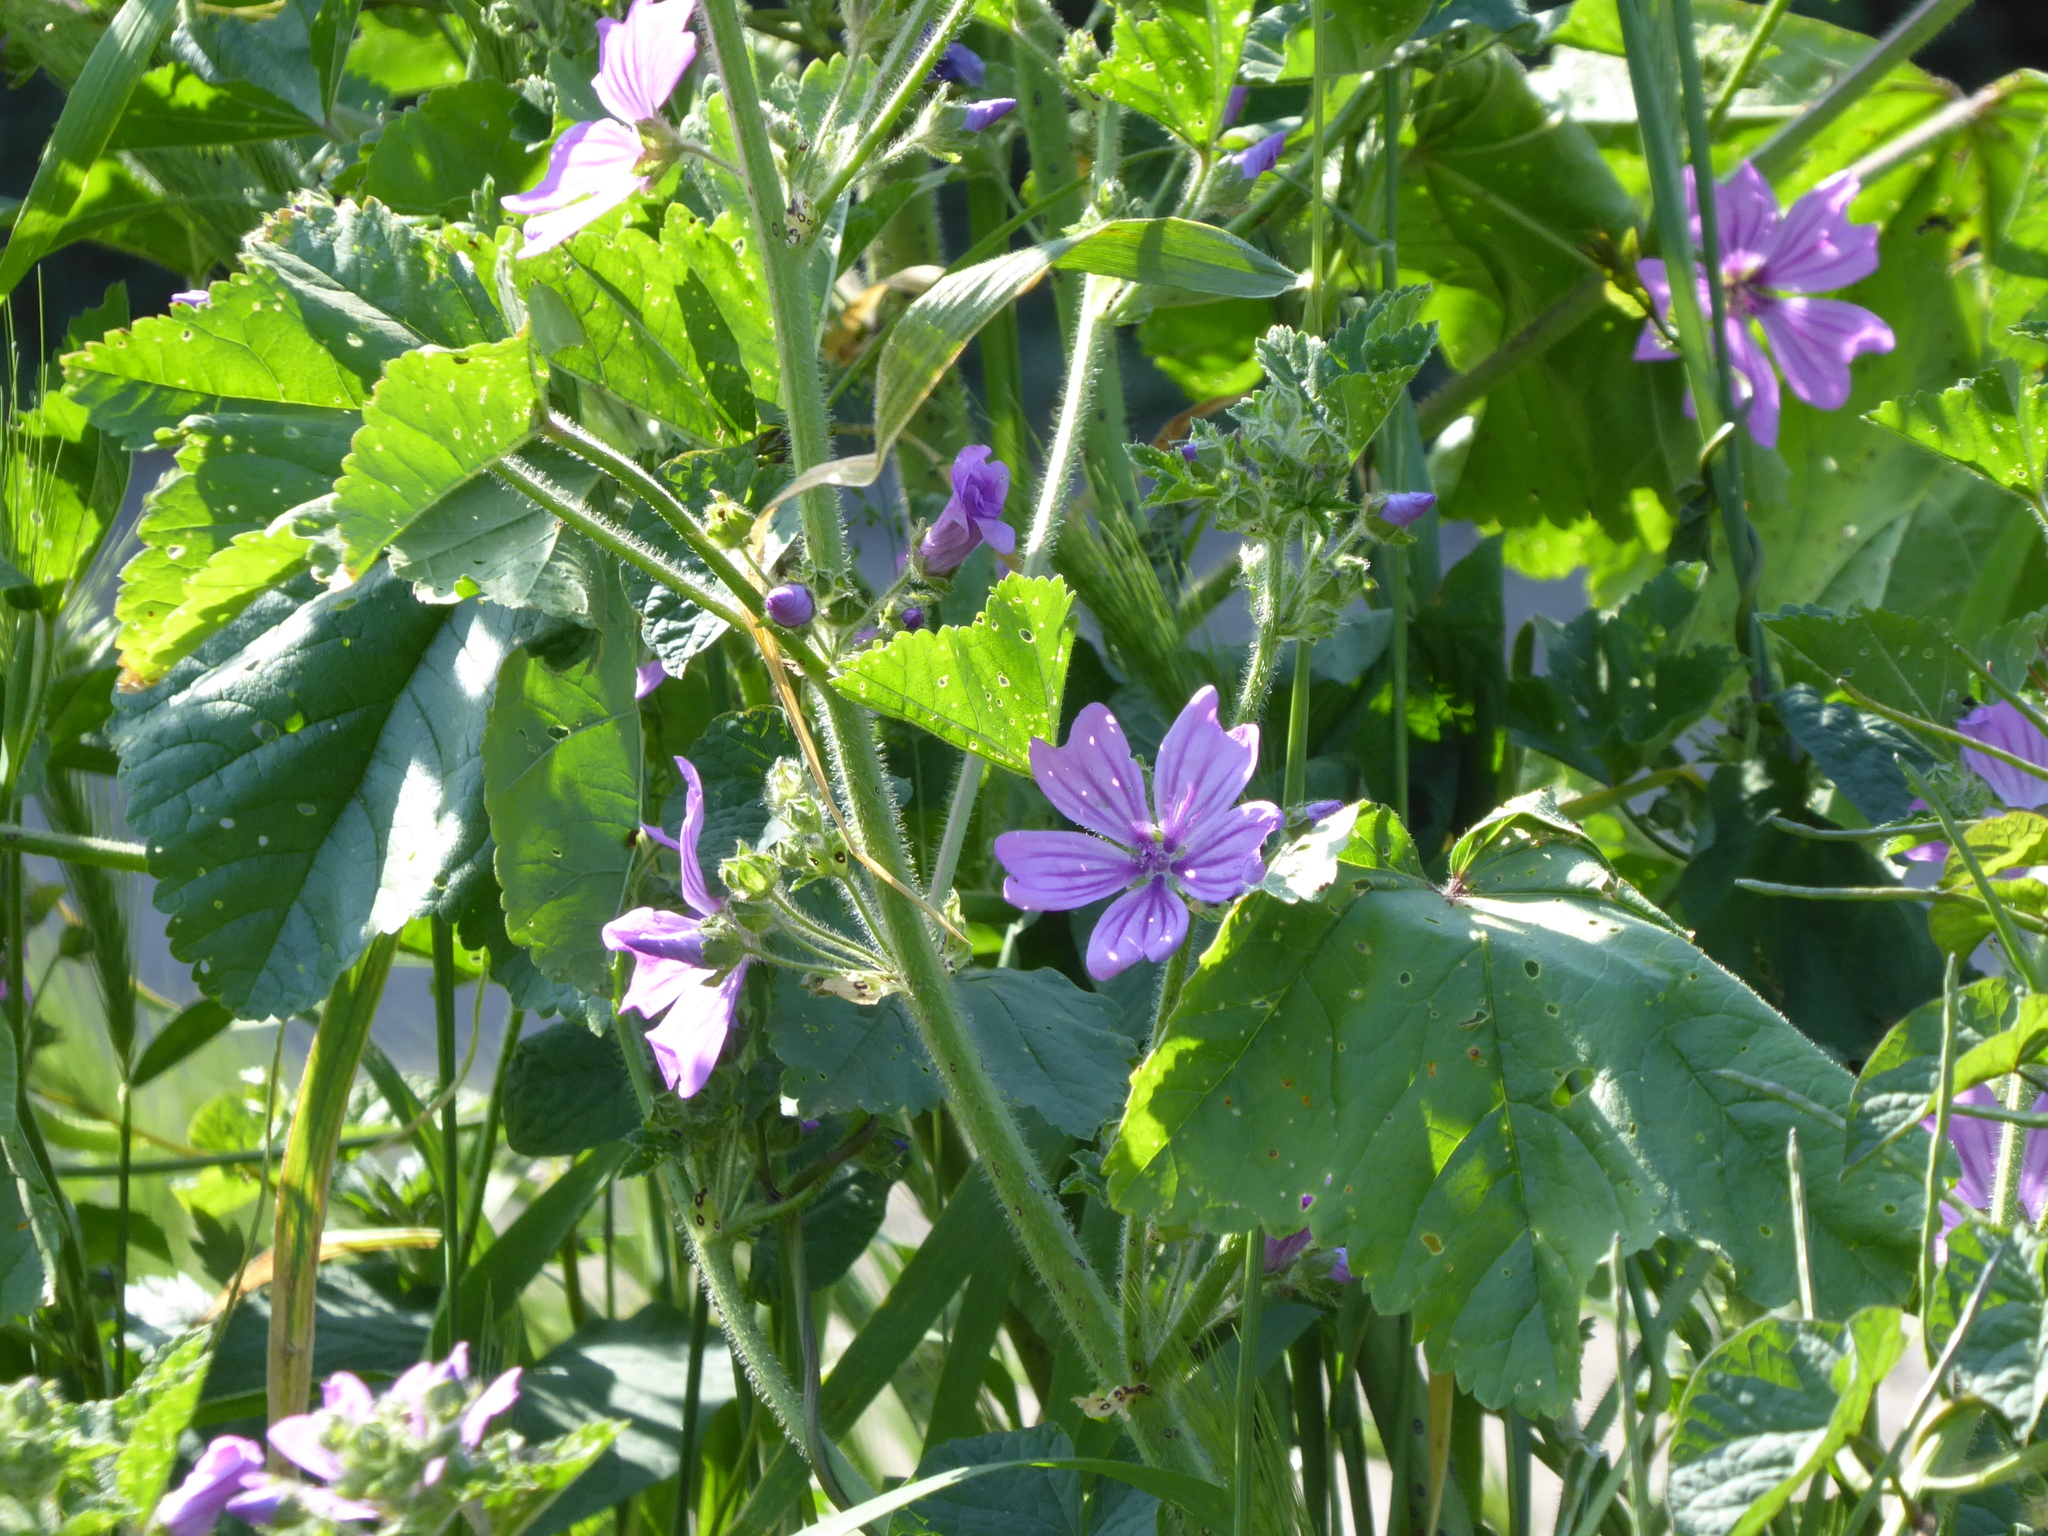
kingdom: Plantae
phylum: Tracheophyta
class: Magnoliopsida
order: Malvales
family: Malvaceae
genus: Malva
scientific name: Malva sylvestris
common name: Common mallow
